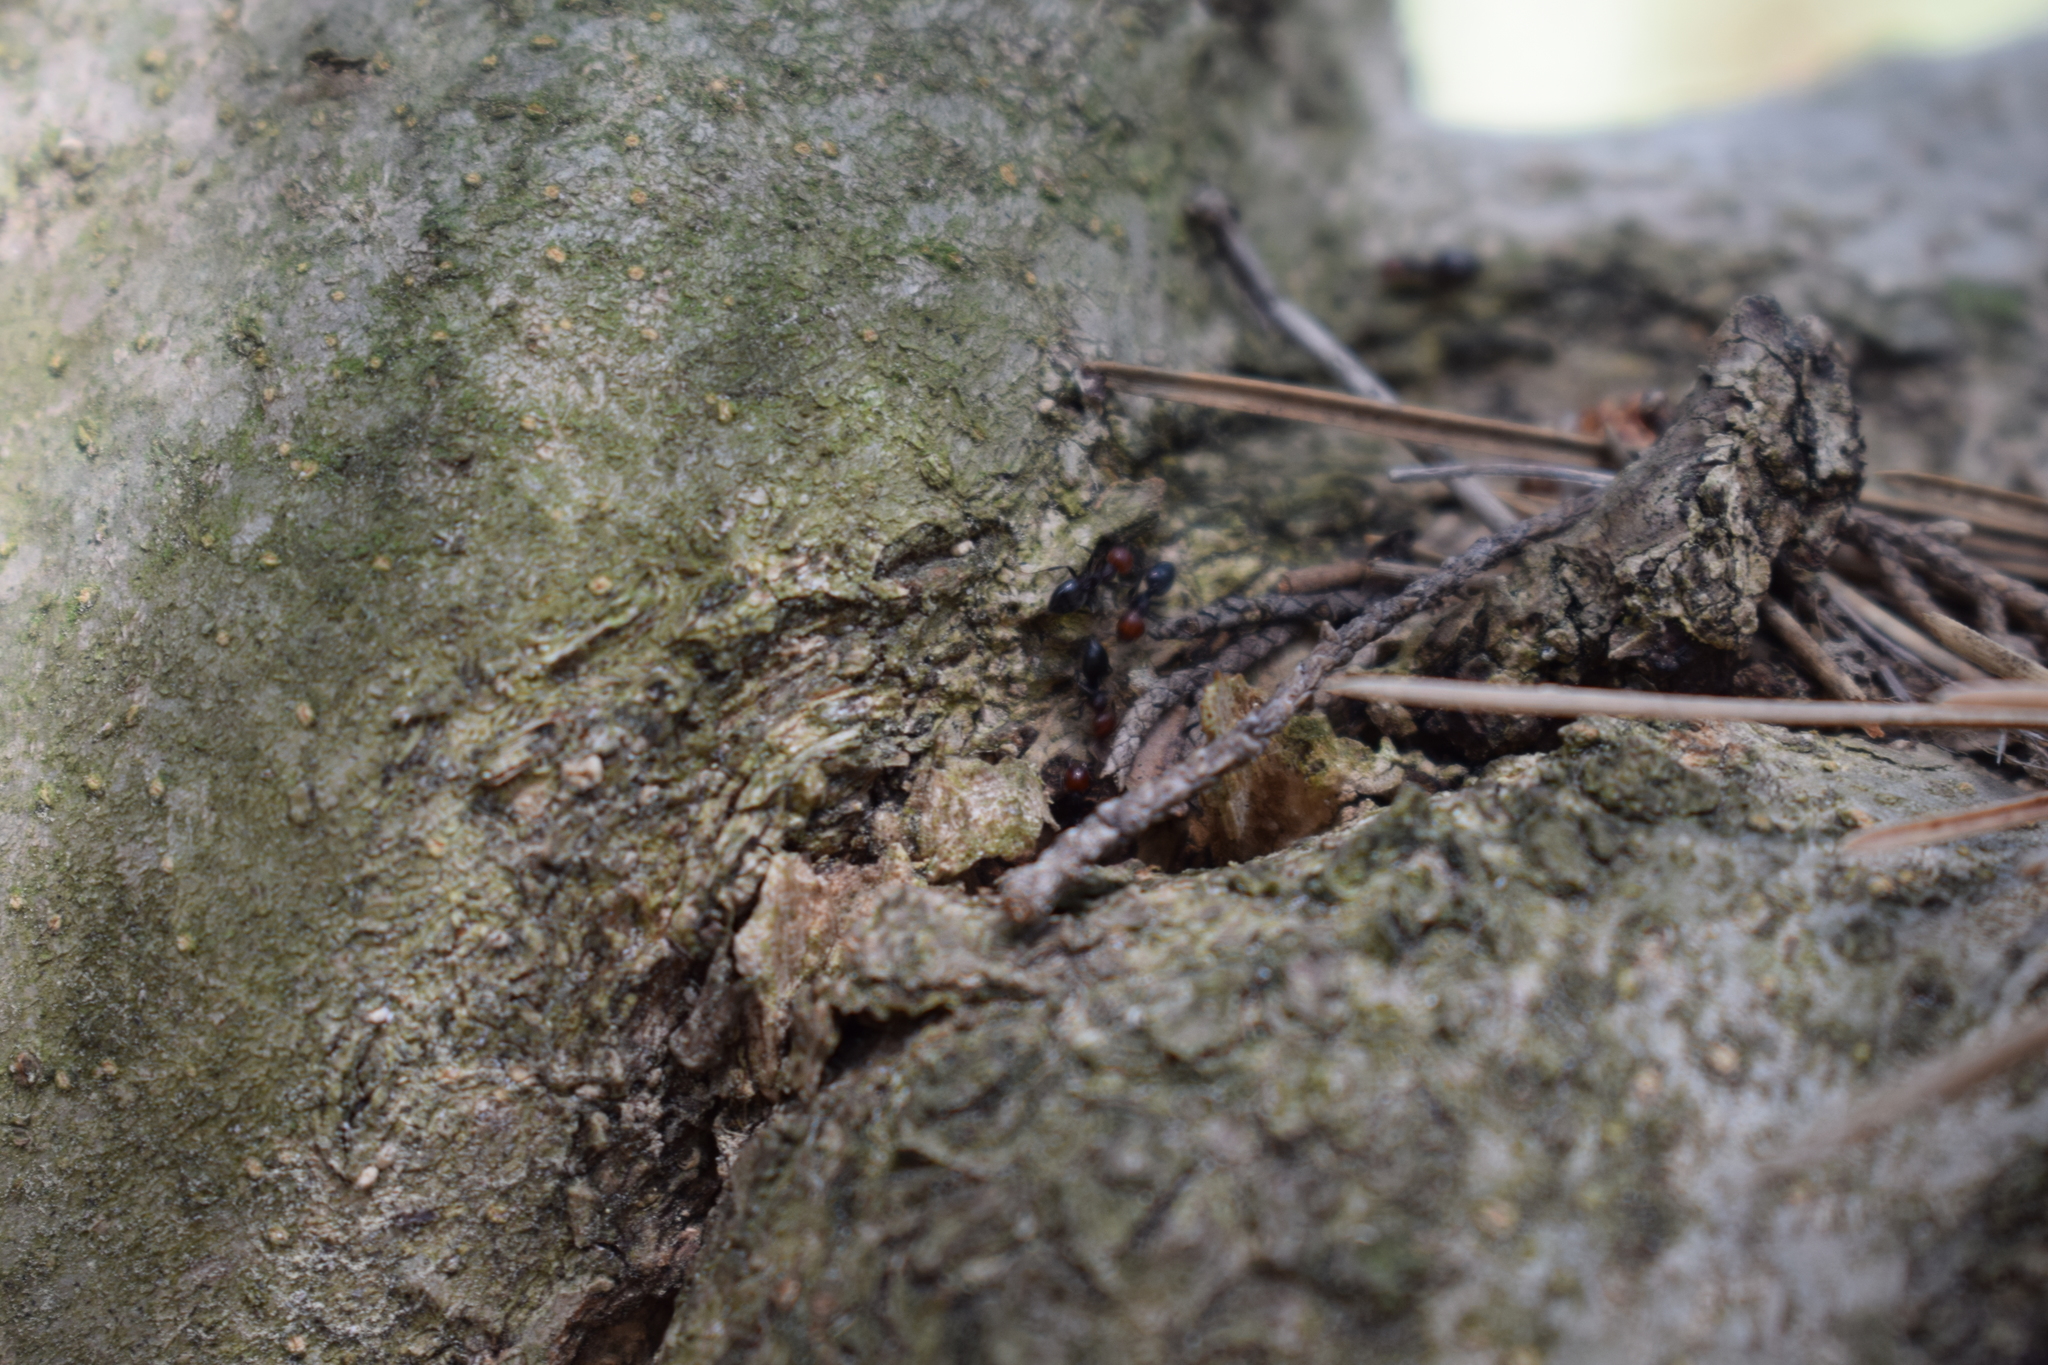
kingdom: Animalia
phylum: Arthropoda
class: Insecta
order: Hymenoptera
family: Formicidae
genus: Crematogaster
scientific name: Crematogaster scutellaris
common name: Fourmi du liège
